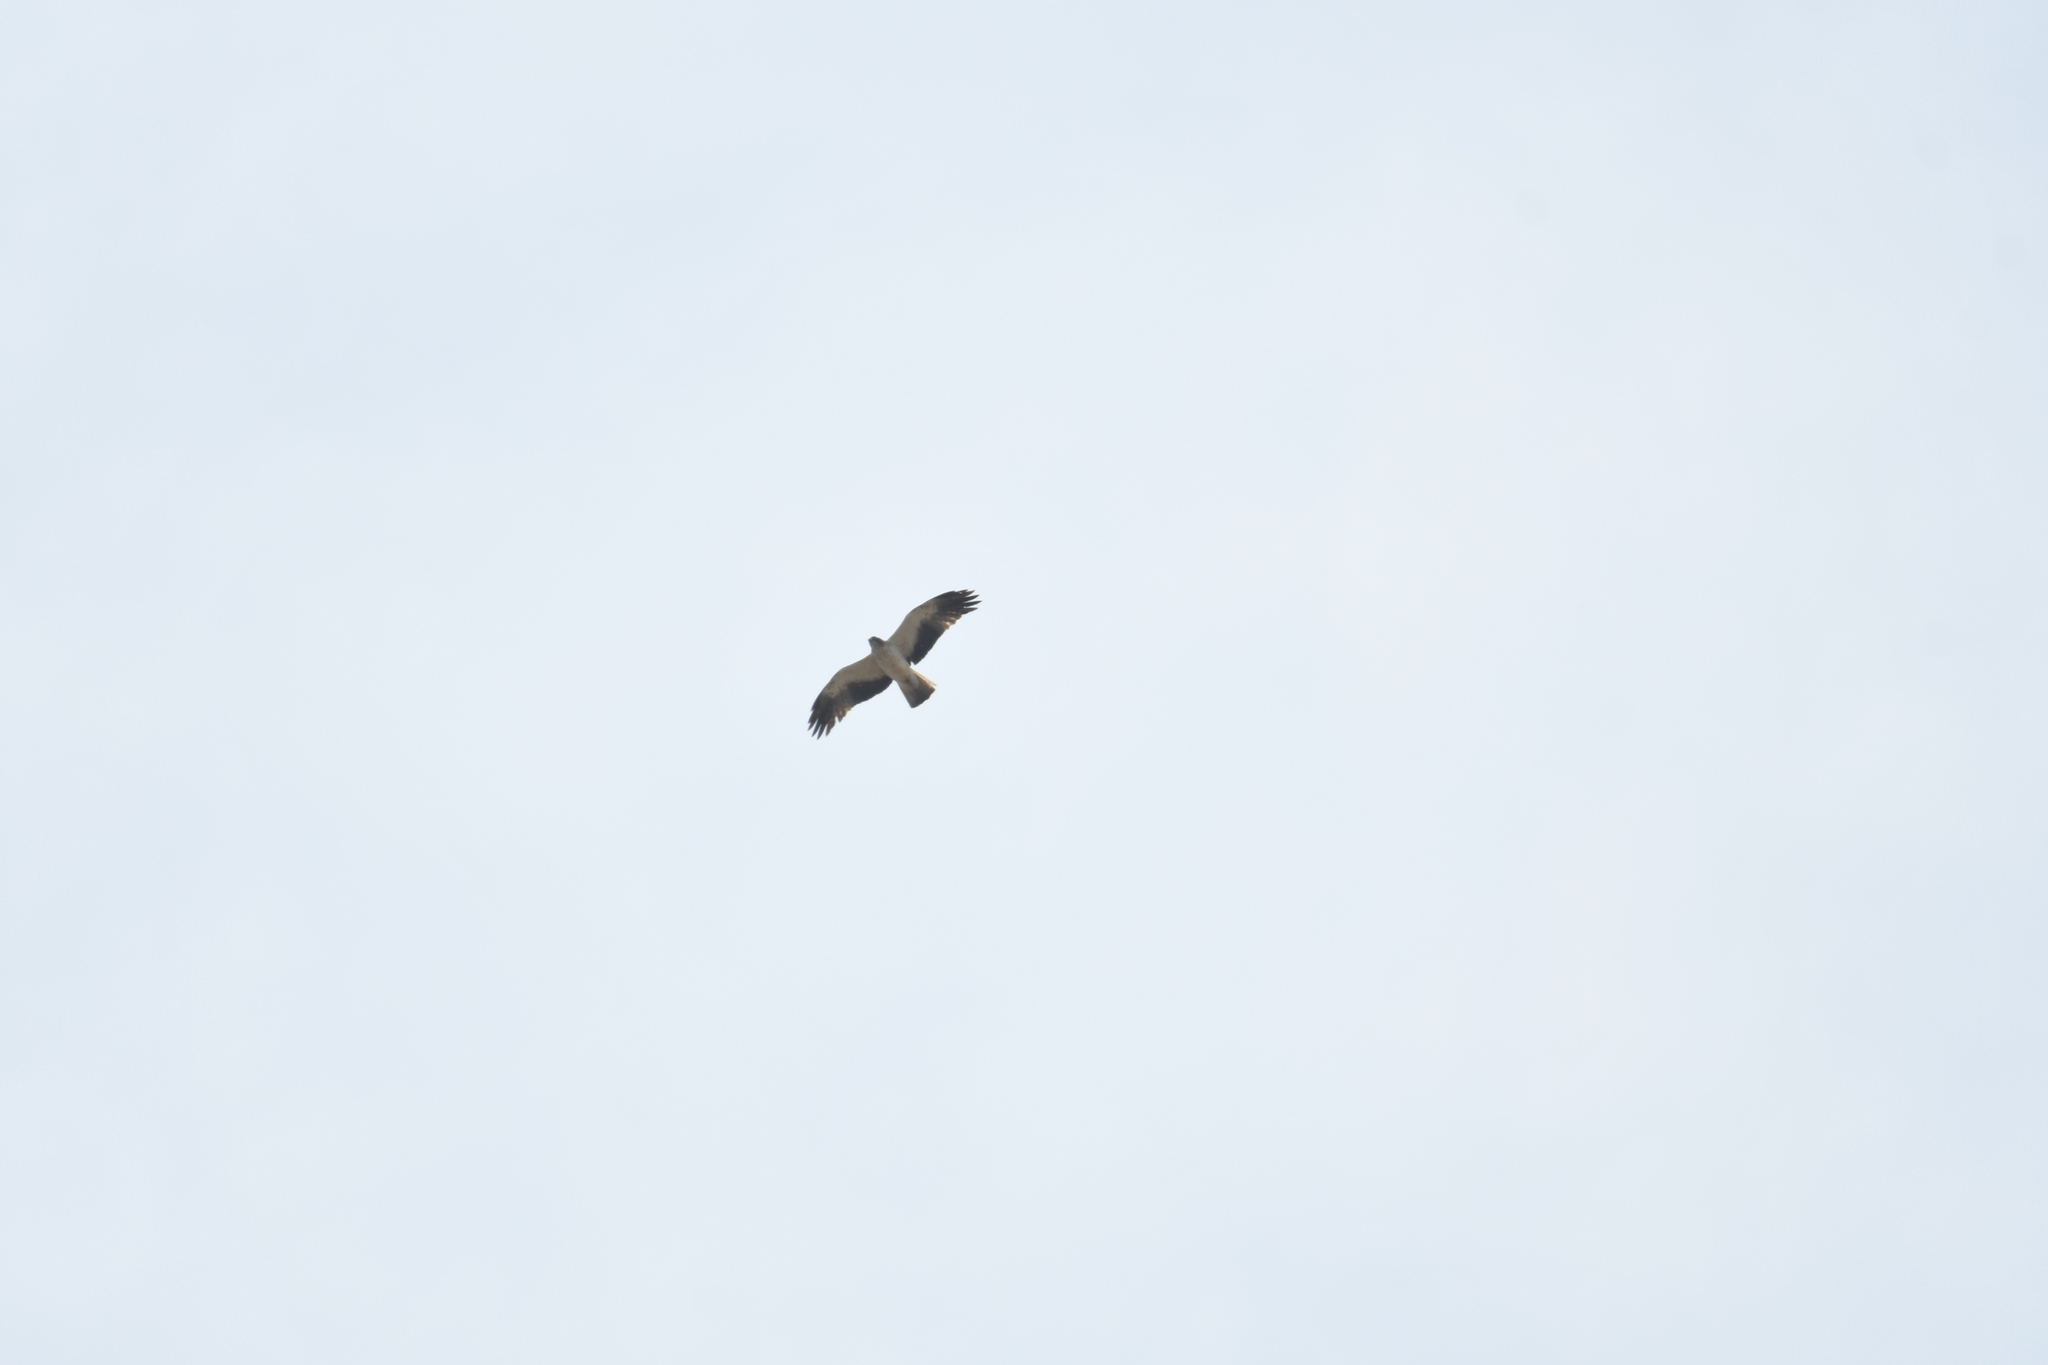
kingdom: Animalia
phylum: Chordata
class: Aves
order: Accipitriformes
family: Accipitridae
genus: Hieraaetus
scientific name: Hieraaetus pennatus
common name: Booted eagle
